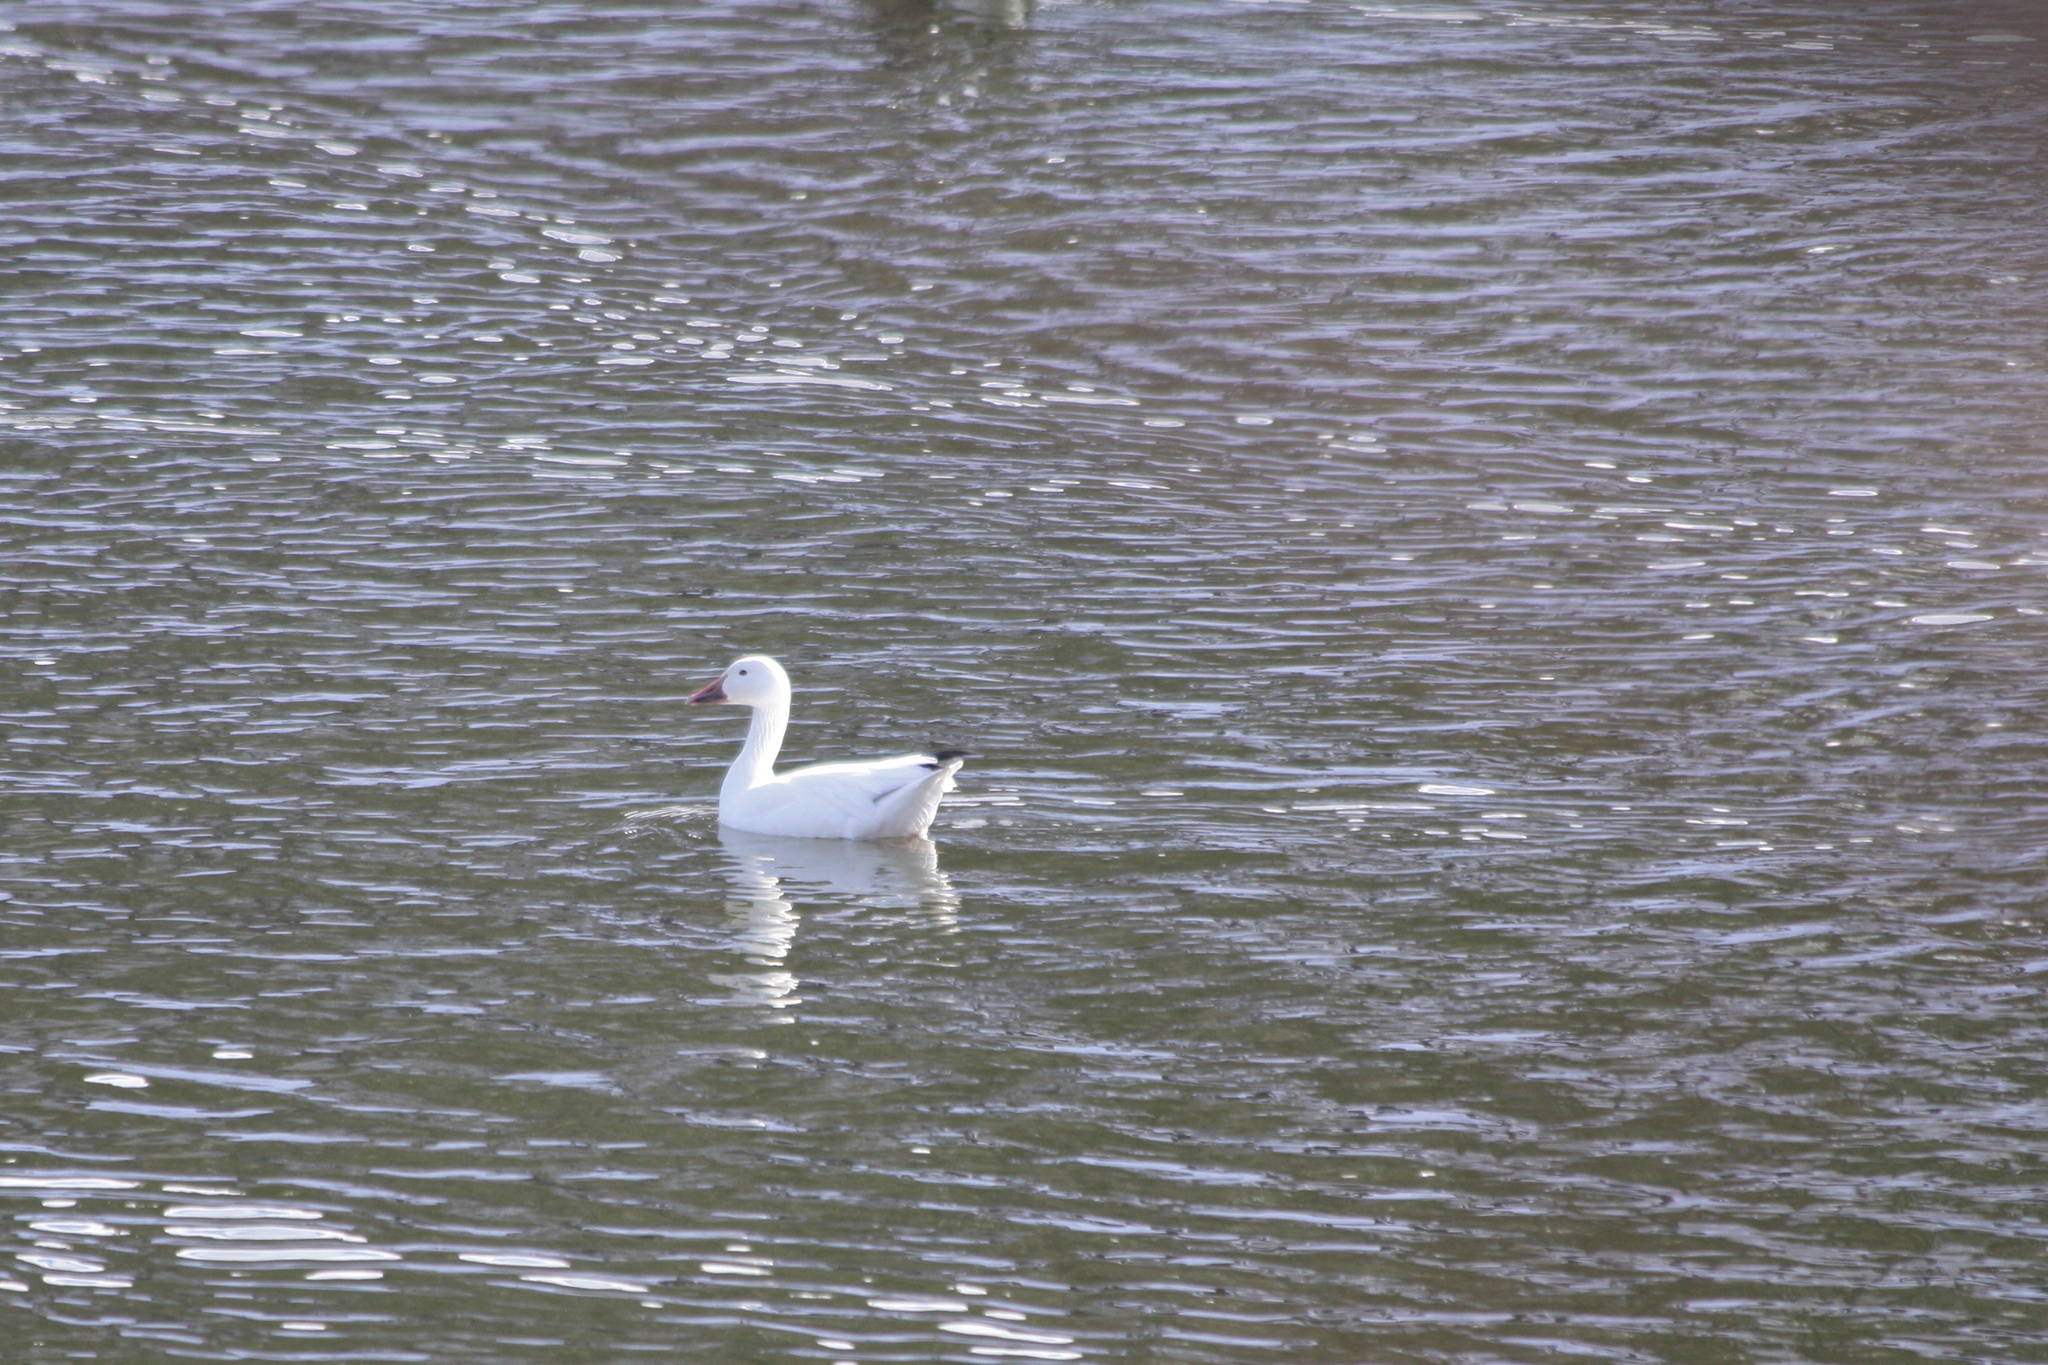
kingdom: Animalia
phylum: Chordata
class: Aves
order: Anseriformes
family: Anatidae
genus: Anser
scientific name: Anser caerulescens
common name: Snow goose
